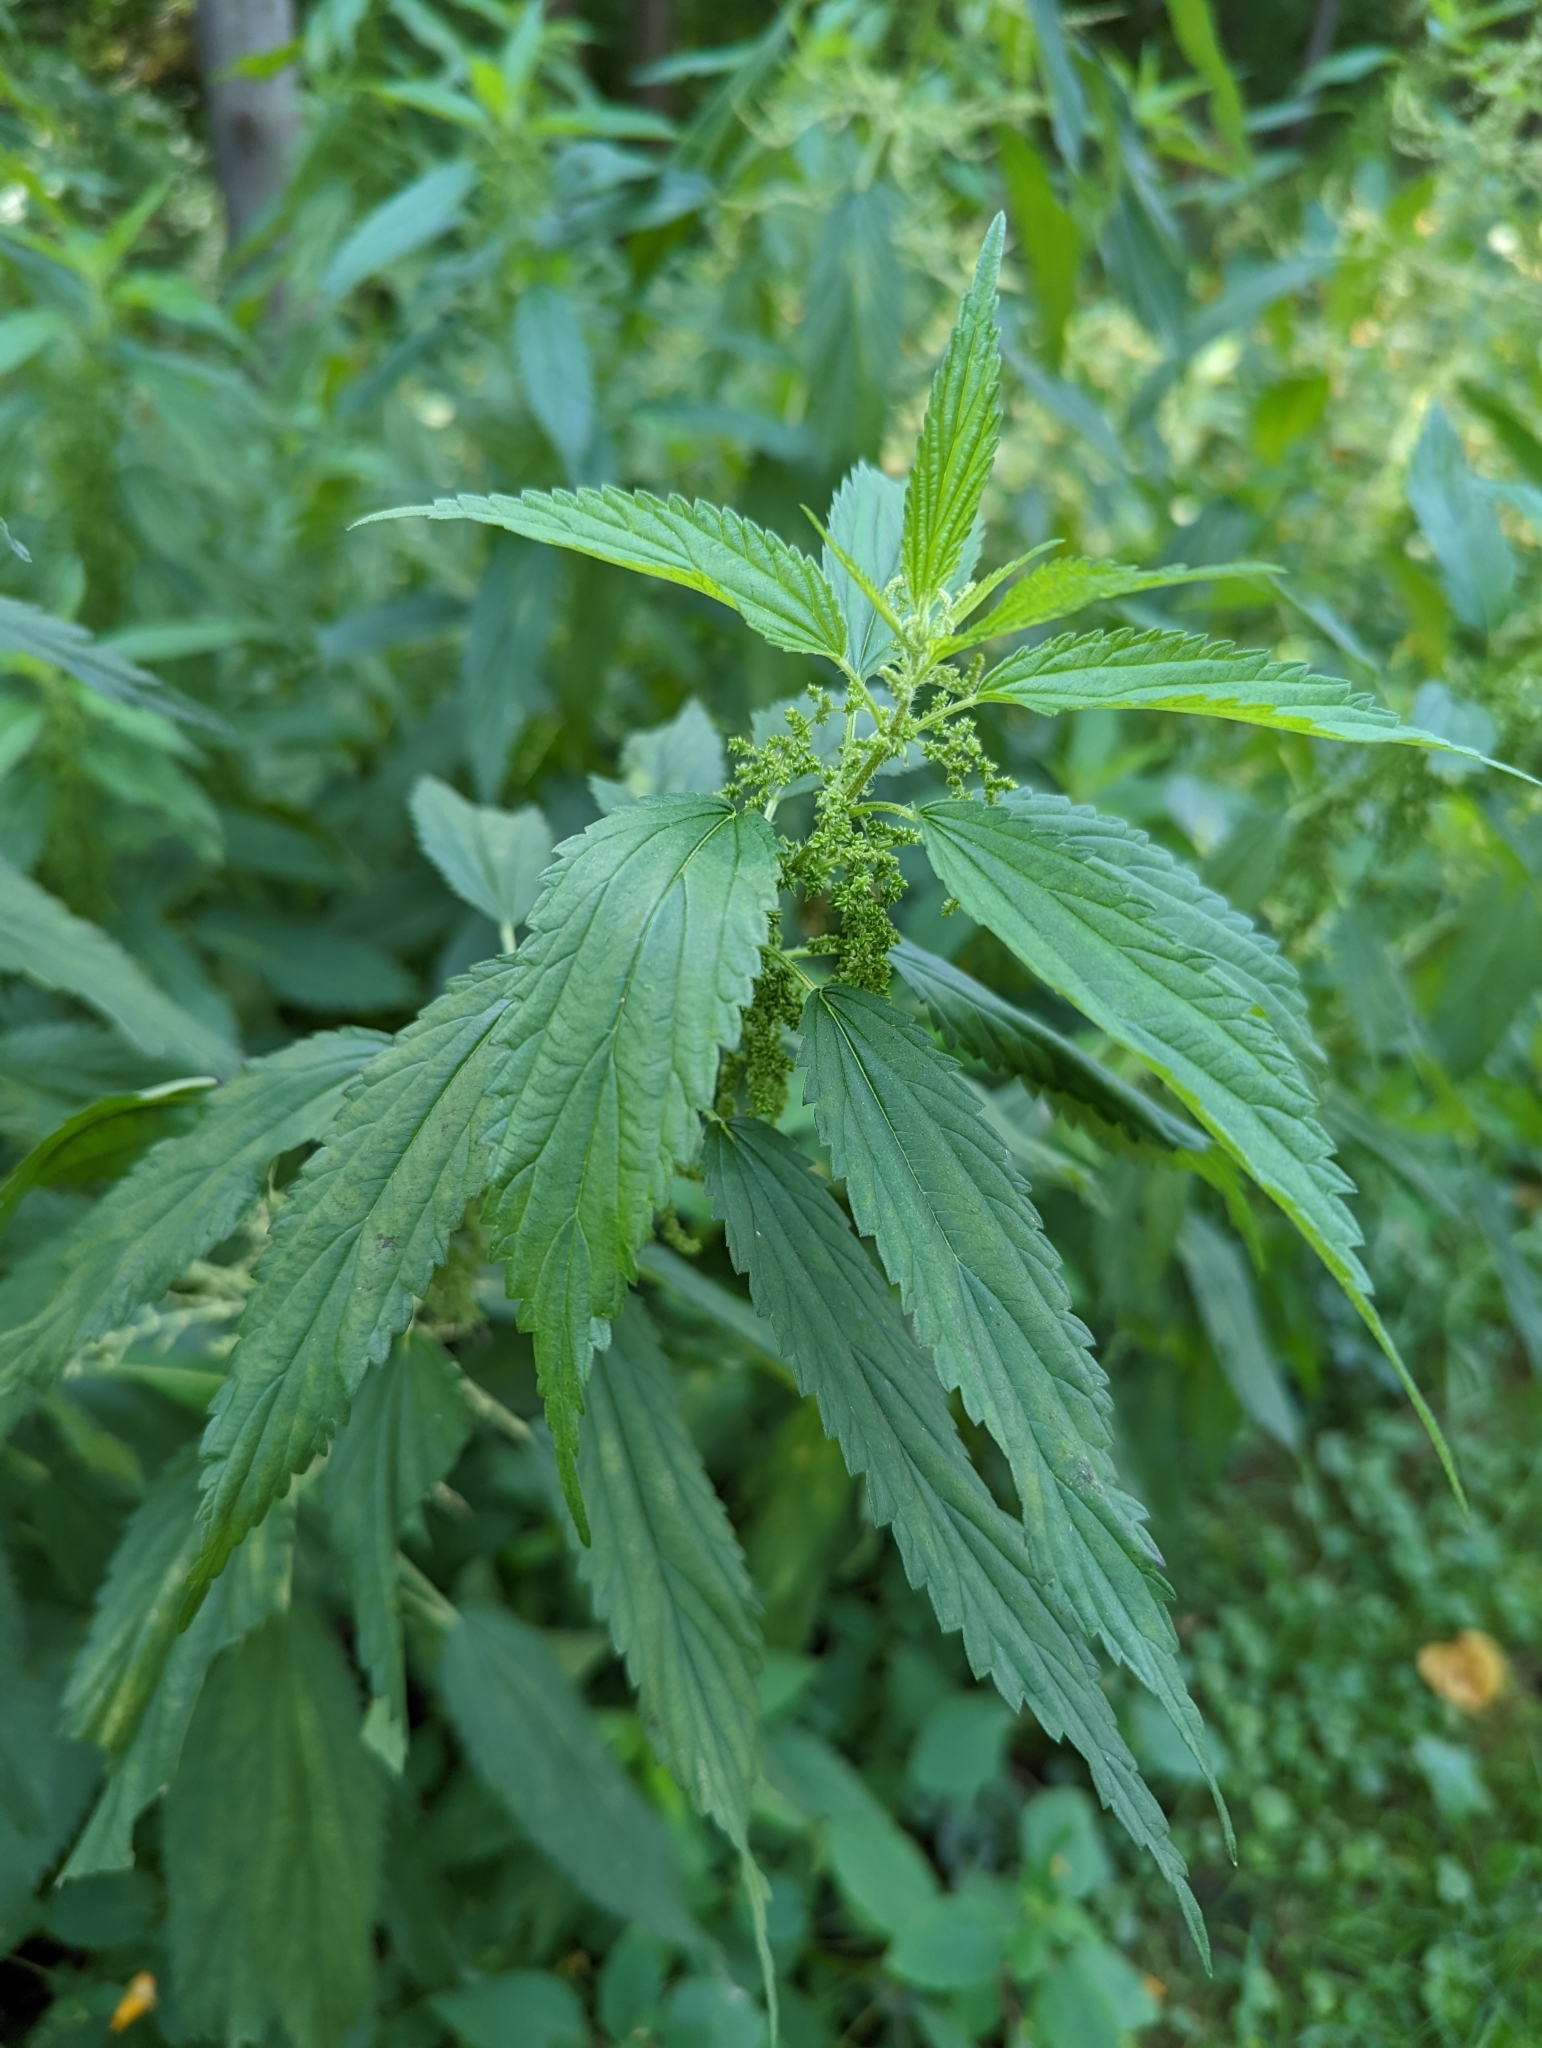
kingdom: Plantae
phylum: Tracheophyta
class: Magnoliopsida
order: Rosales
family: Urticaceae
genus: Urtica
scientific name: Urtica dioica
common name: Common nettle
